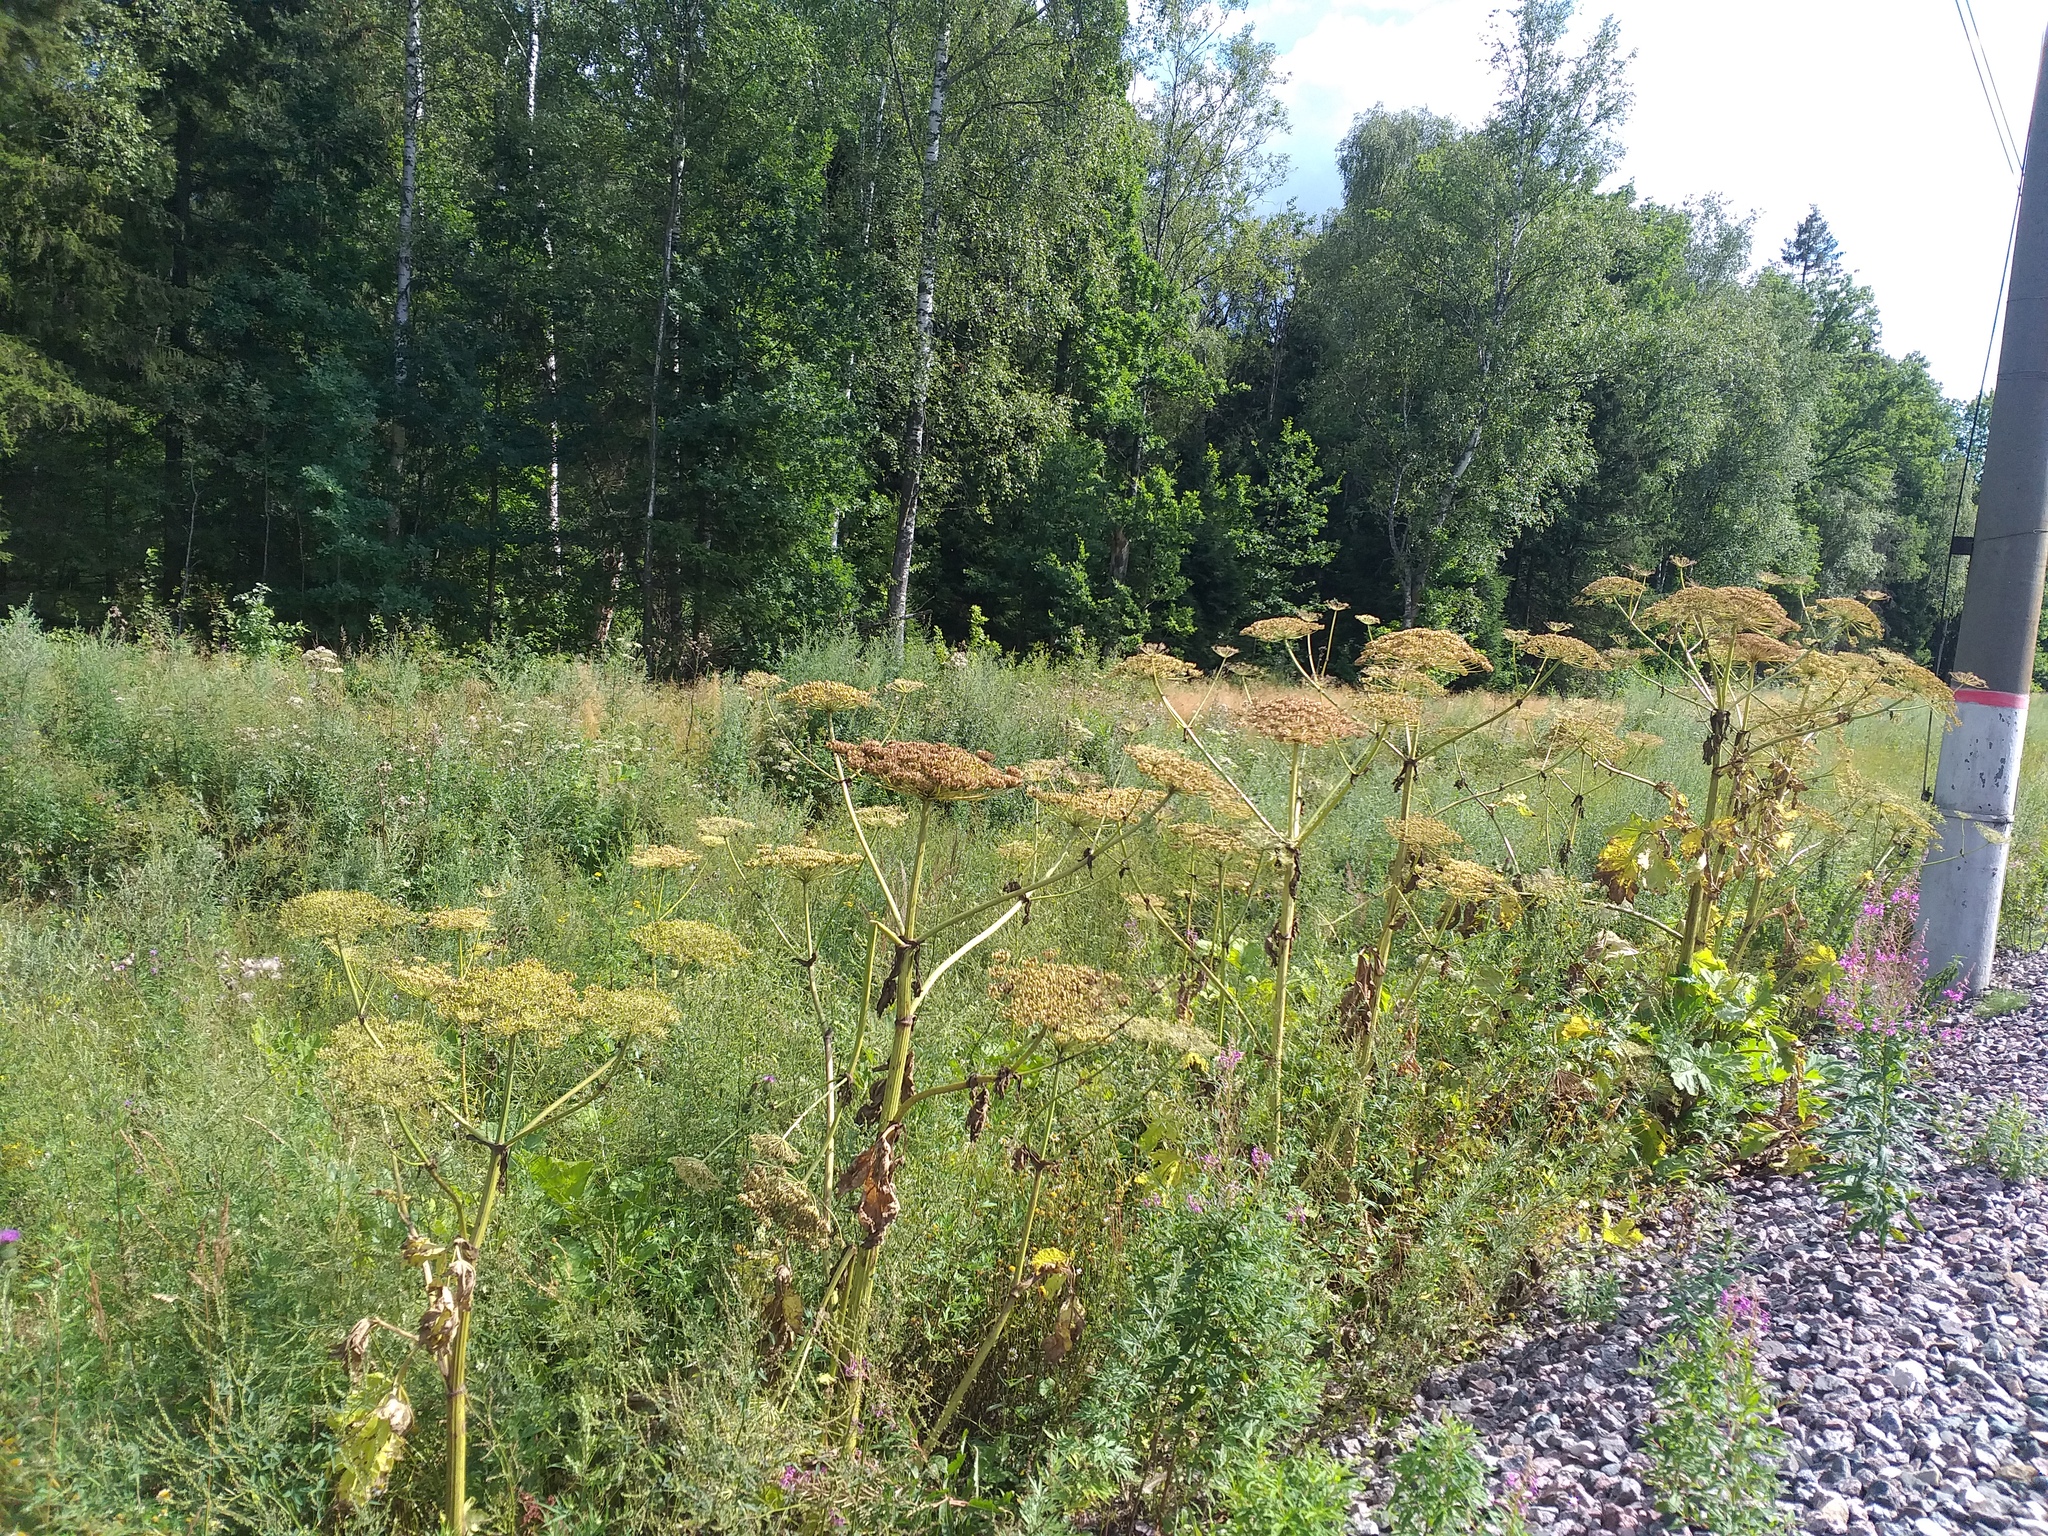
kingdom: Plantae
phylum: Tracheophyta
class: Magnoliopsida
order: Apiales
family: Apiaceae
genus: Heracleum
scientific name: Heracleum sosnowskyi
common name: Sosnowsky's hogweed
